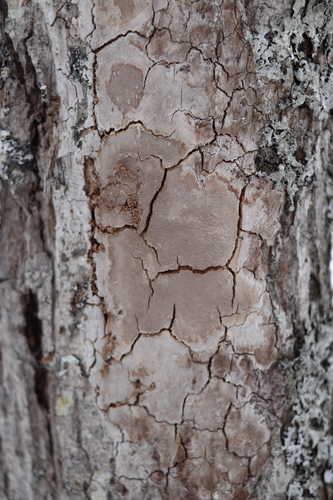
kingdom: Fungi
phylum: Basidiomycota
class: Agaricomycetes
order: Hymenochaetales
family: Hymenochaetaceae
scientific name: Hymenochaetaceae
